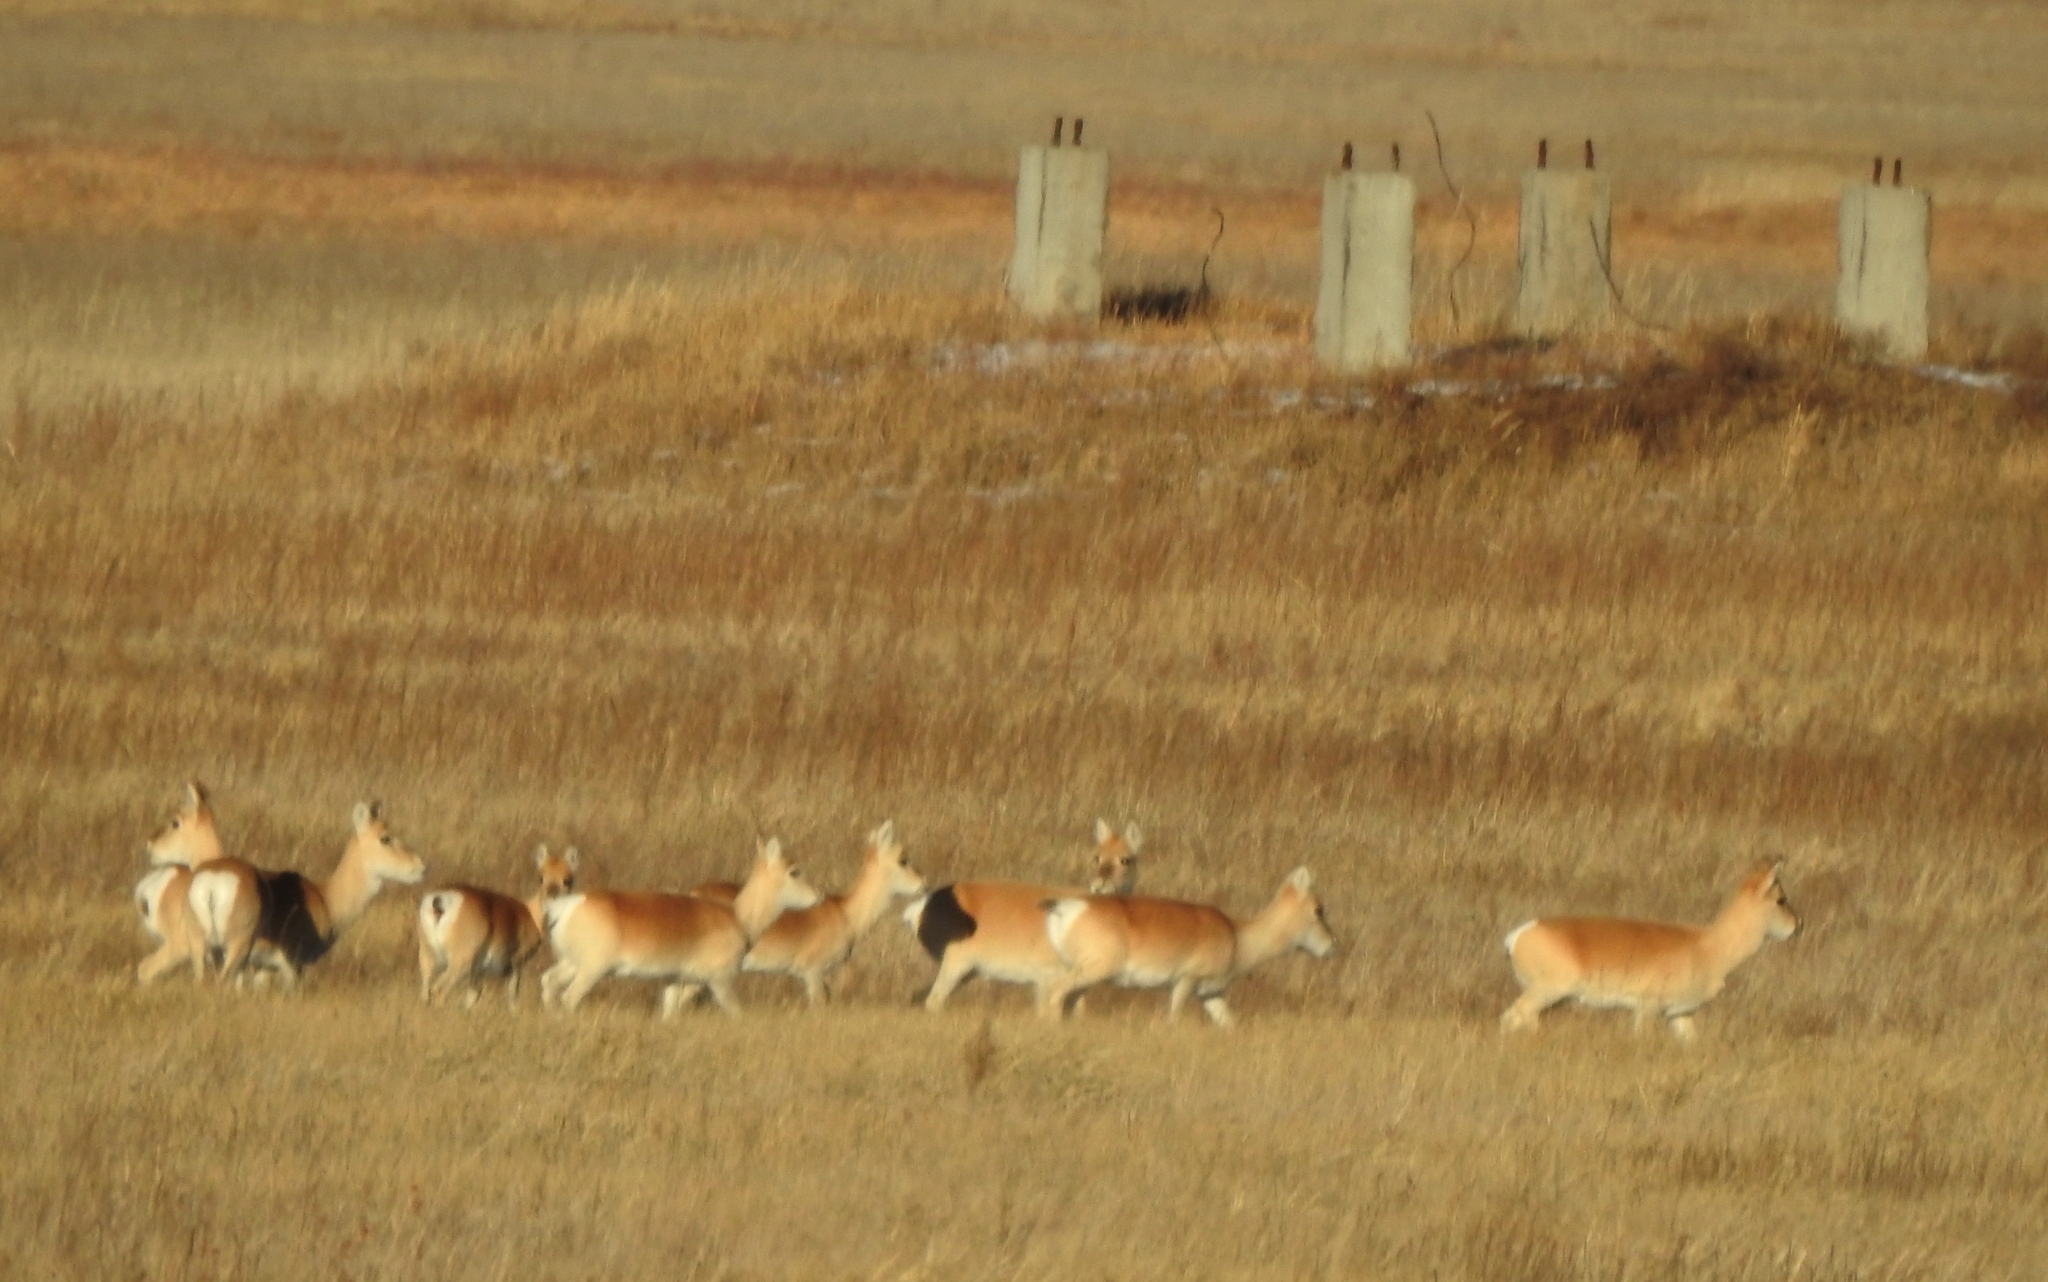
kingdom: Animalia
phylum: Chordata
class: Mammalia
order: Artiodactyla
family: Bovidae
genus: Procapra
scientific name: Procapra gutturosa
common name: Mongolian gazelle
